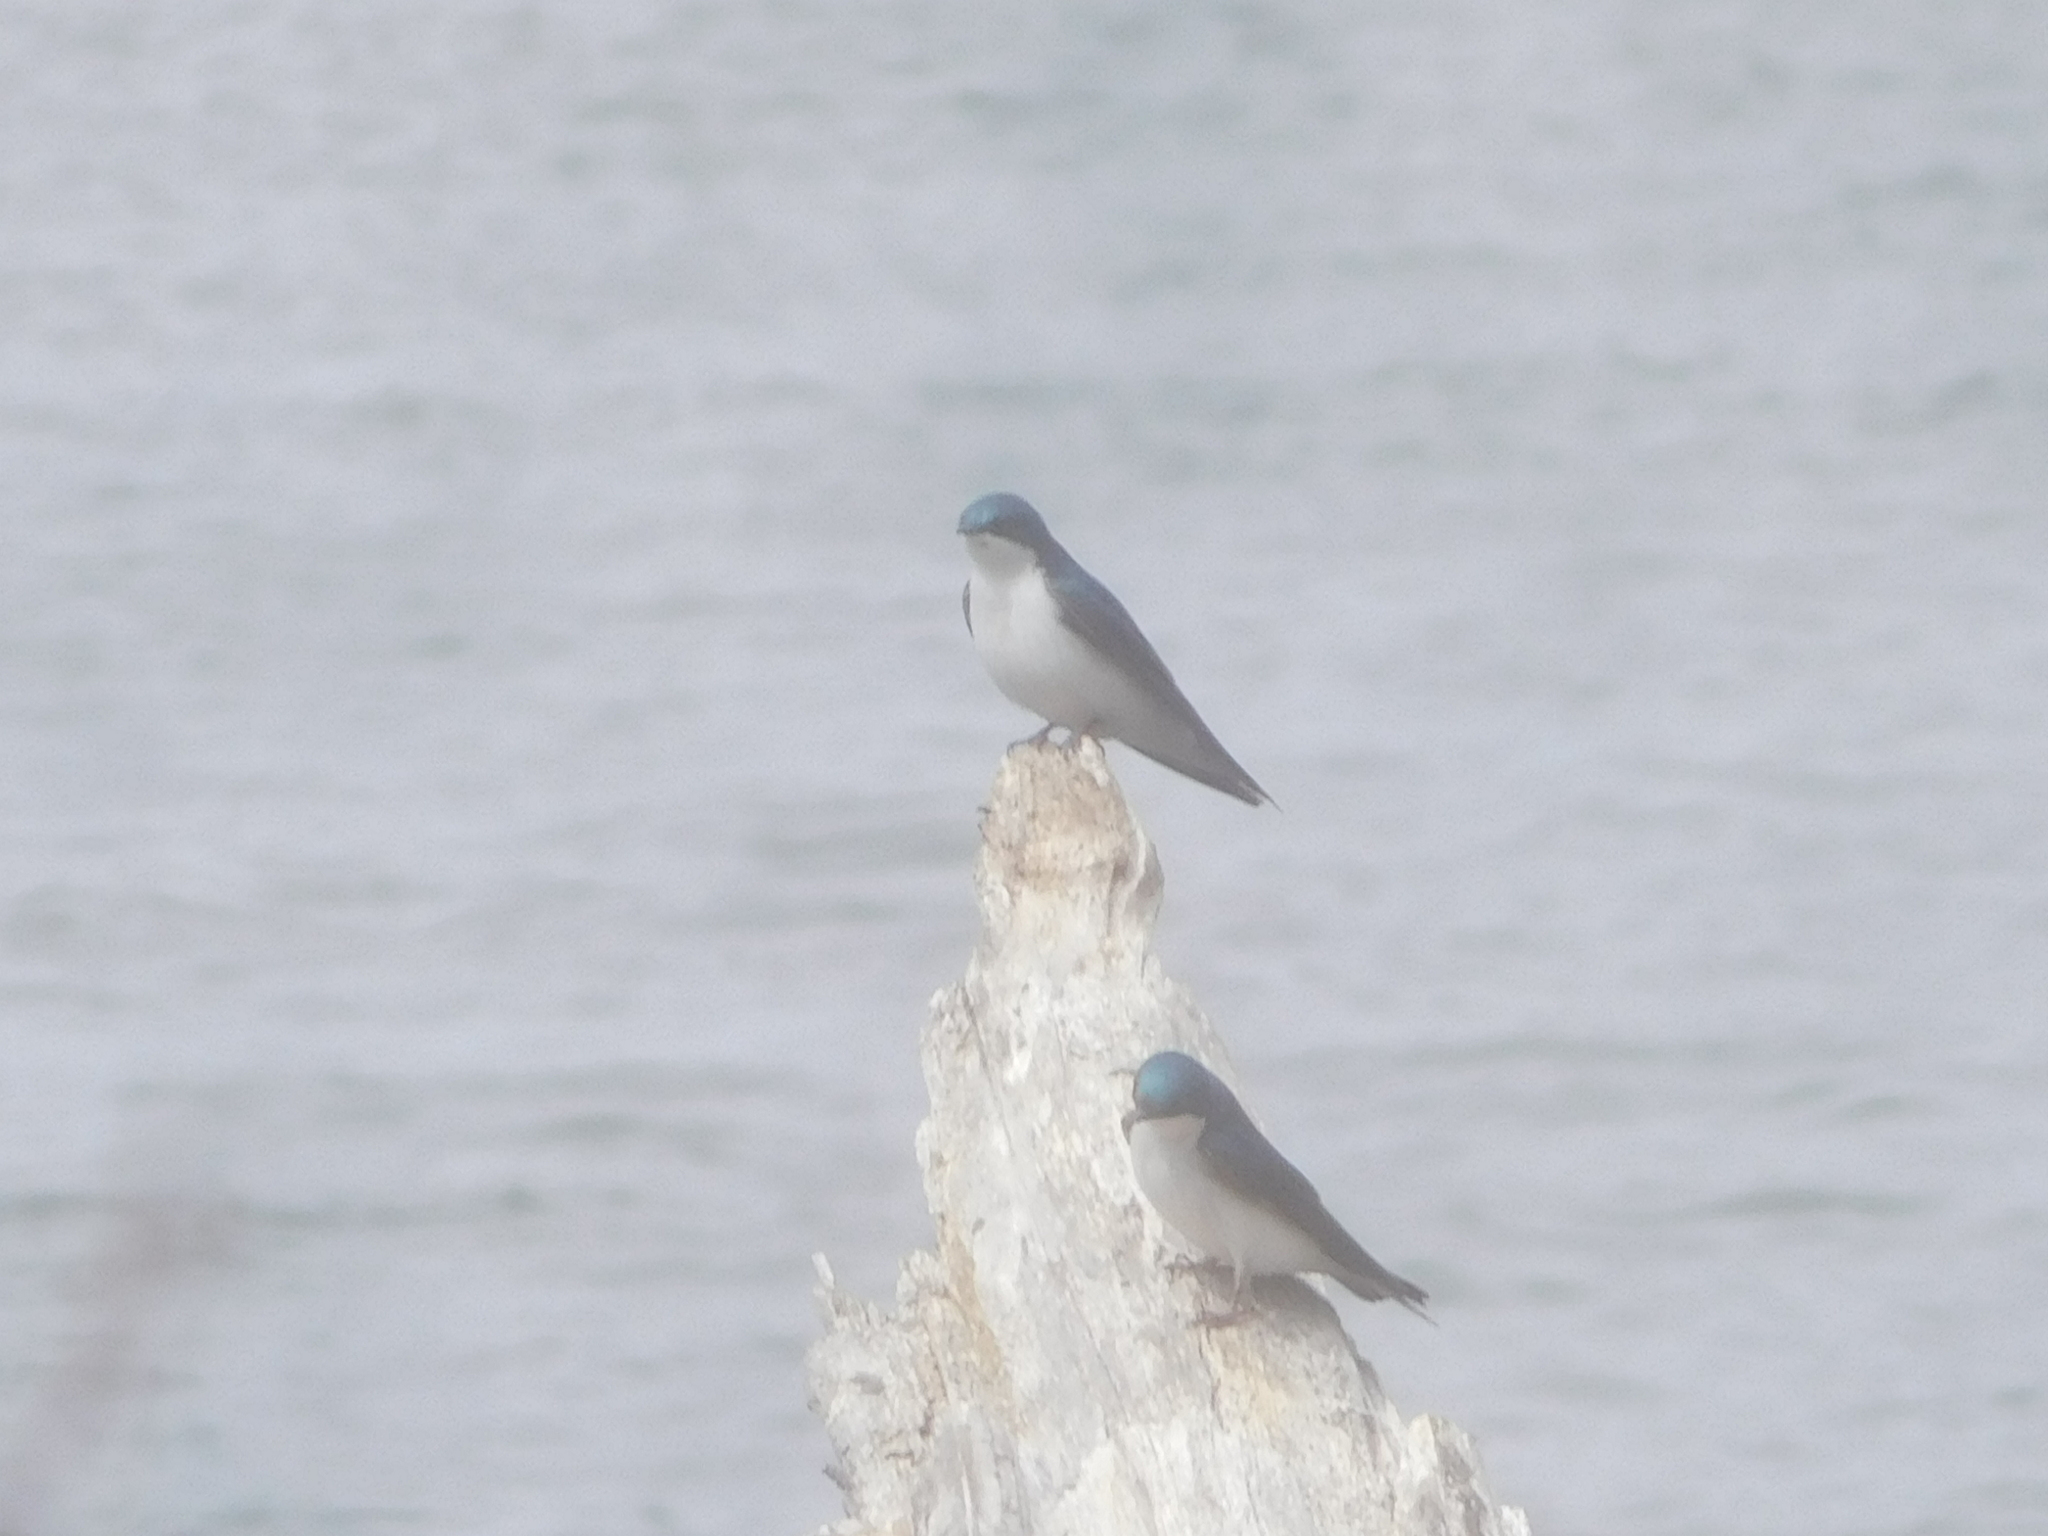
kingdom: Animalia
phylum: Chordata
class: Aves
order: Passeriformes
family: Hirundinidae
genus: Tachycineta
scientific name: Tachycineta bicolor
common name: Tree swallow
